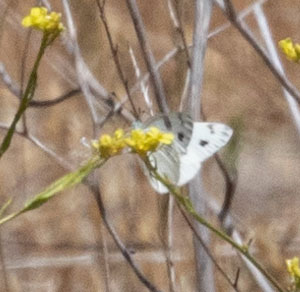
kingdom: Animalia
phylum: Arthropoda
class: Insecta
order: Lepidoptera
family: Pieridae
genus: Pontia
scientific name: Pontia protodice
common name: Checkered white
